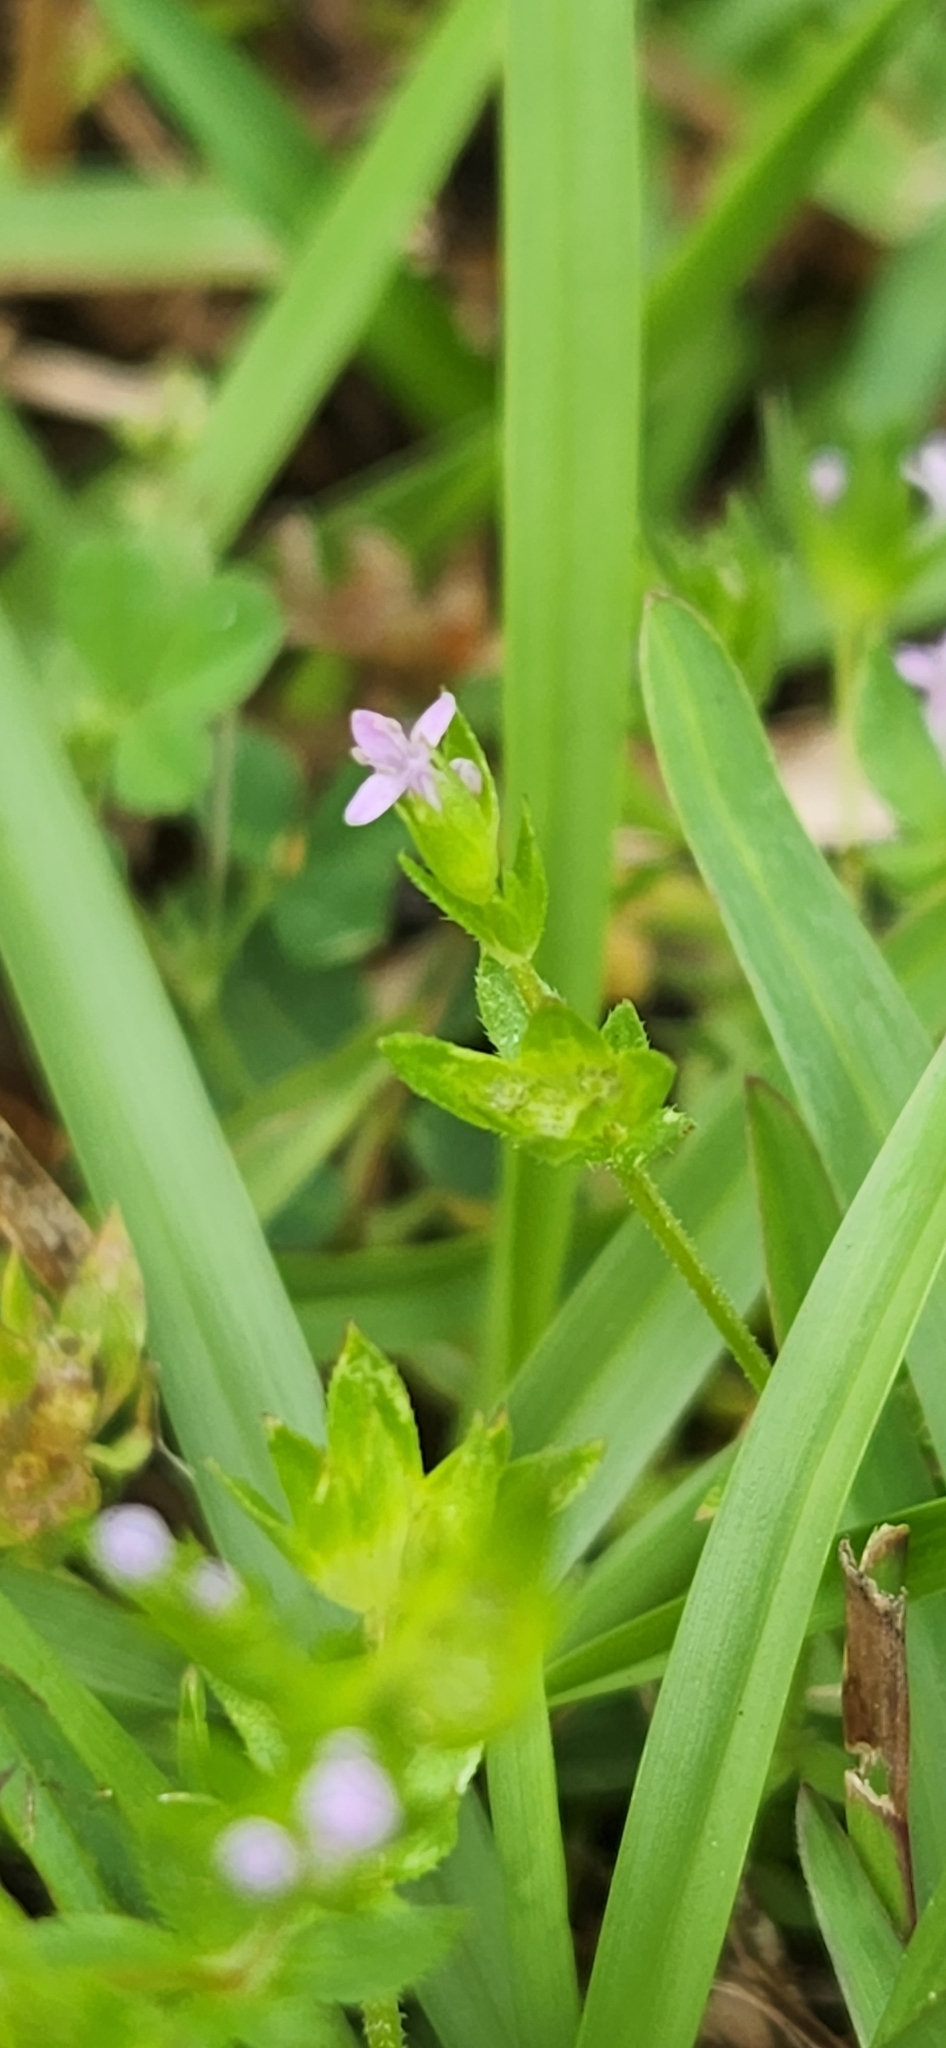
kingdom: Plantae
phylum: Tracheophyta
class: Magnoliopsida
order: Gentianales
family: Rubiaceae
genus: Sherardia
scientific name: Sherardia arvensis
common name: Field madder
